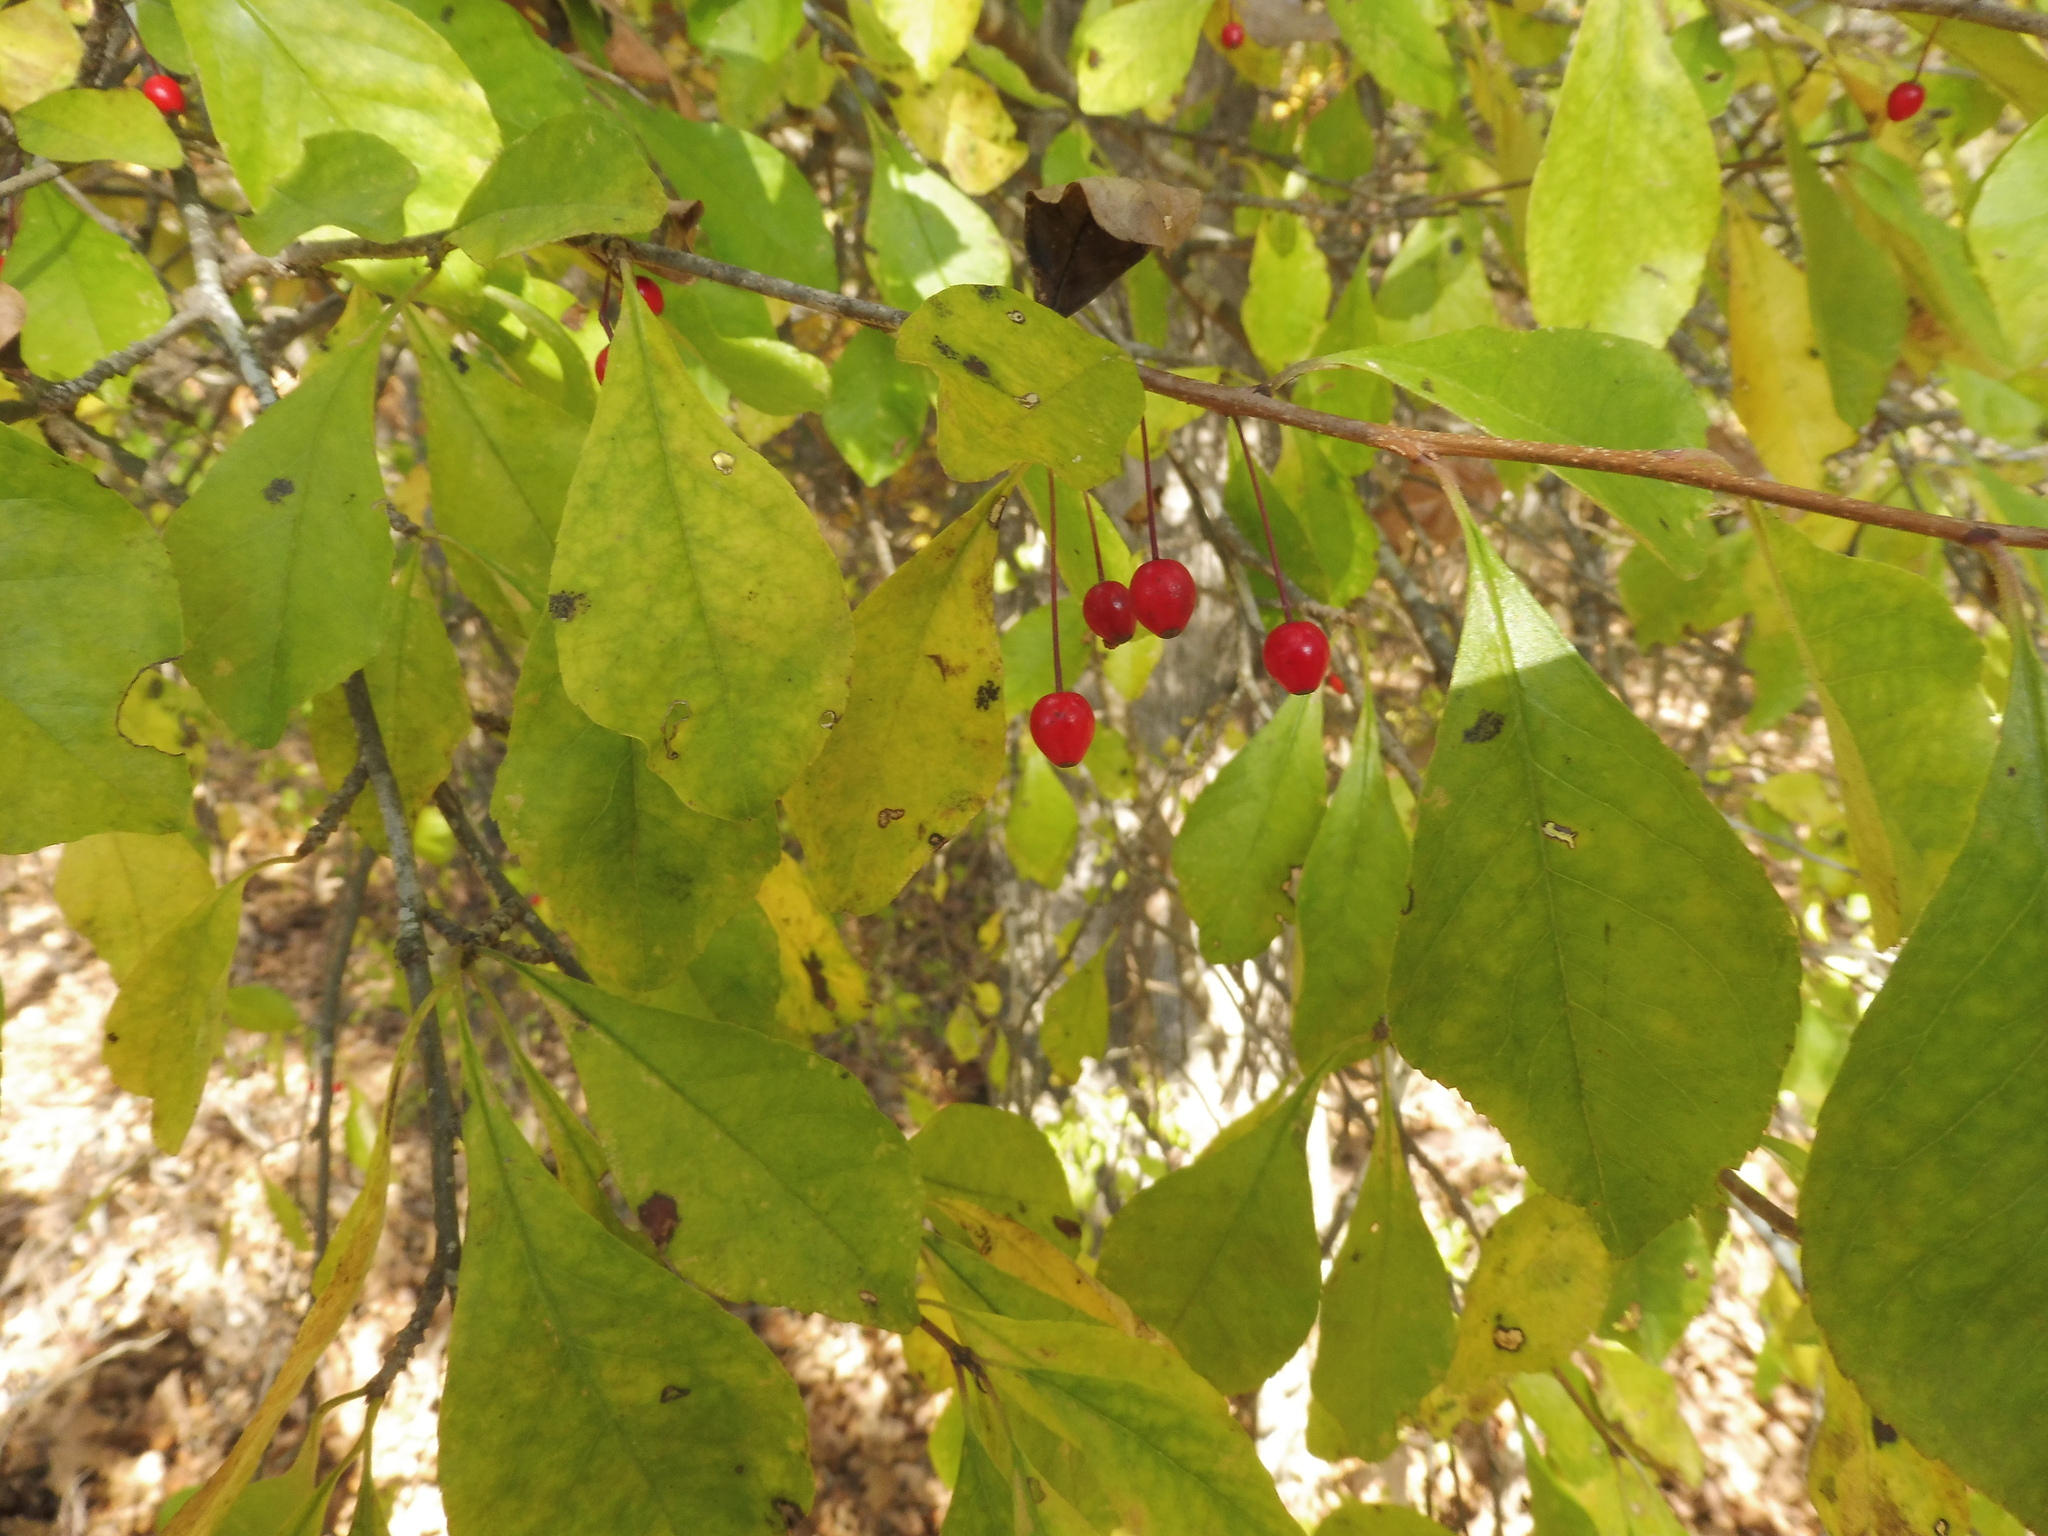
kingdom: Plantae
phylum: Tracheophyta
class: Magnoliopsida
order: Aquifoliales
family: Aquifoliaceae
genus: Ilex
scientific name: Ilex longipes
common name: Georgia holly
